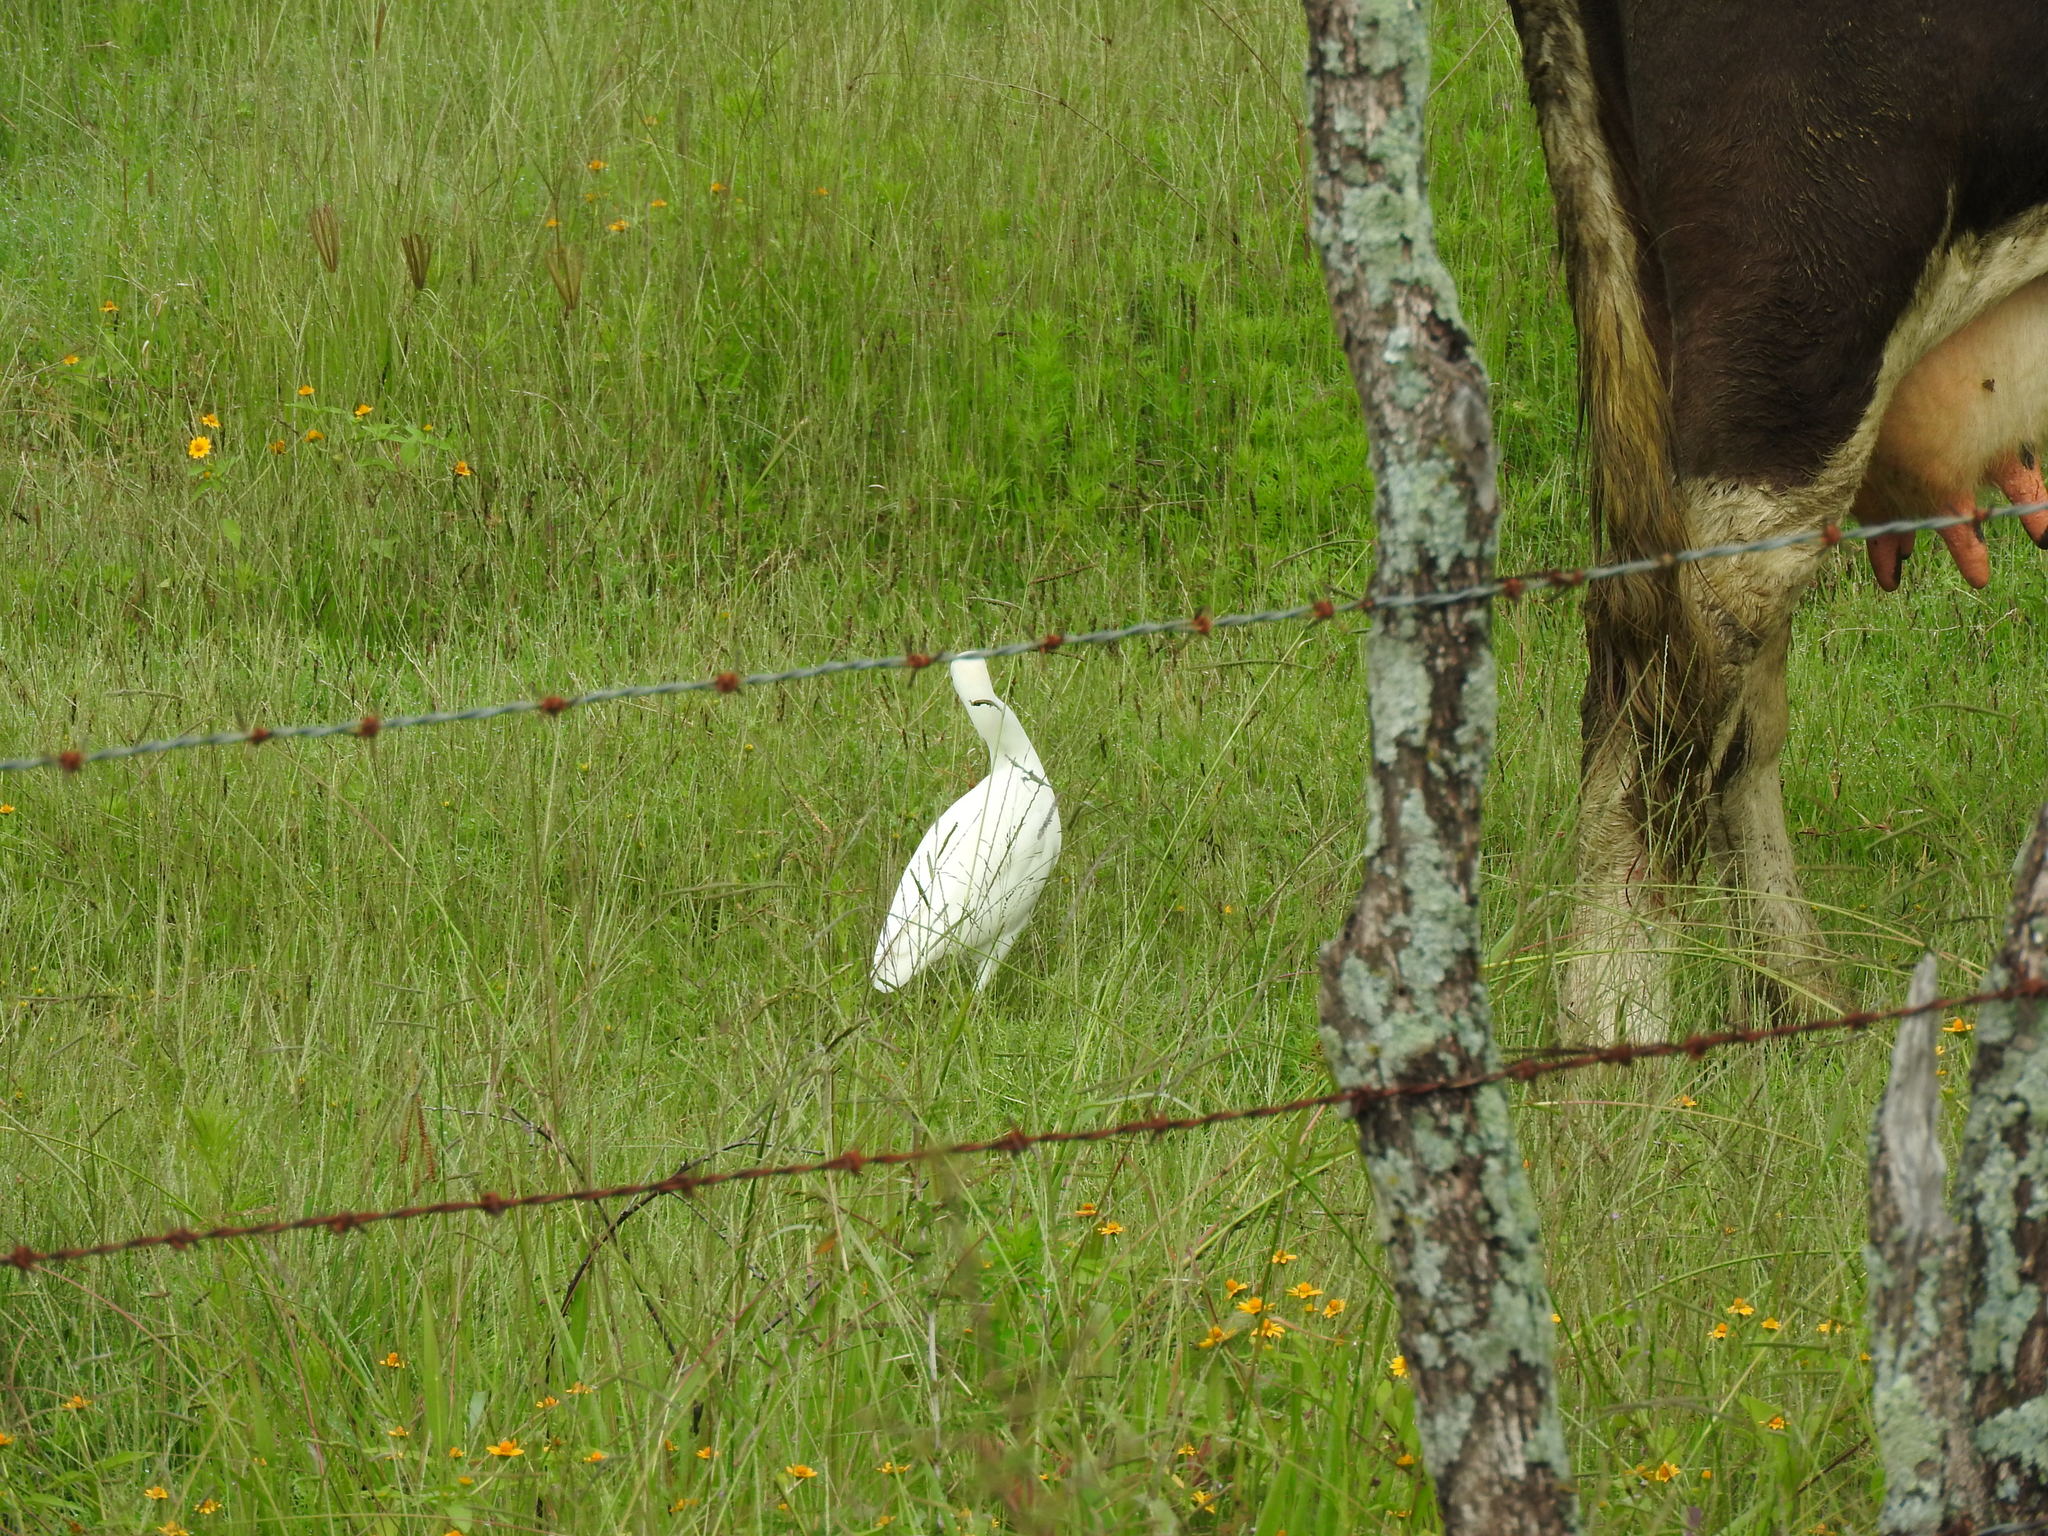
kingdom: Animalia
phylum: Chordata
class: Aves
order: Pelecaniformes
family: Ardeidae
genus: Bubulcus
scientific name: Bubulcus ibis
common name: Cattle egret
